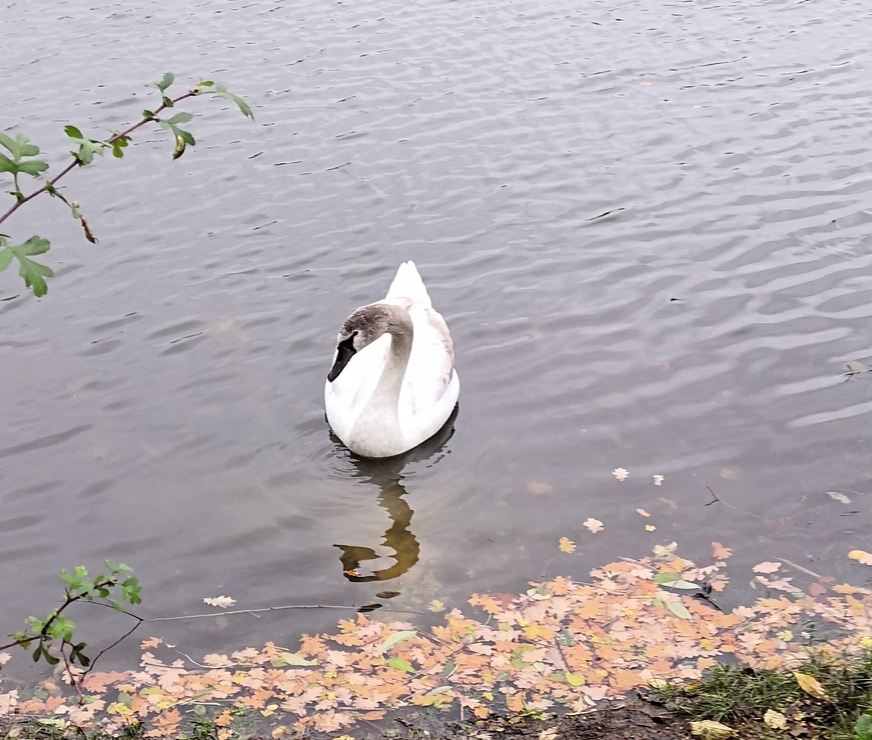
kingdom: Animalia
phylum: Chordata
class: Aves
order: Anseriformes
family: Anatidae
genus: Cygnus
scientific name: Cygnus olor
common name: Mute swan
